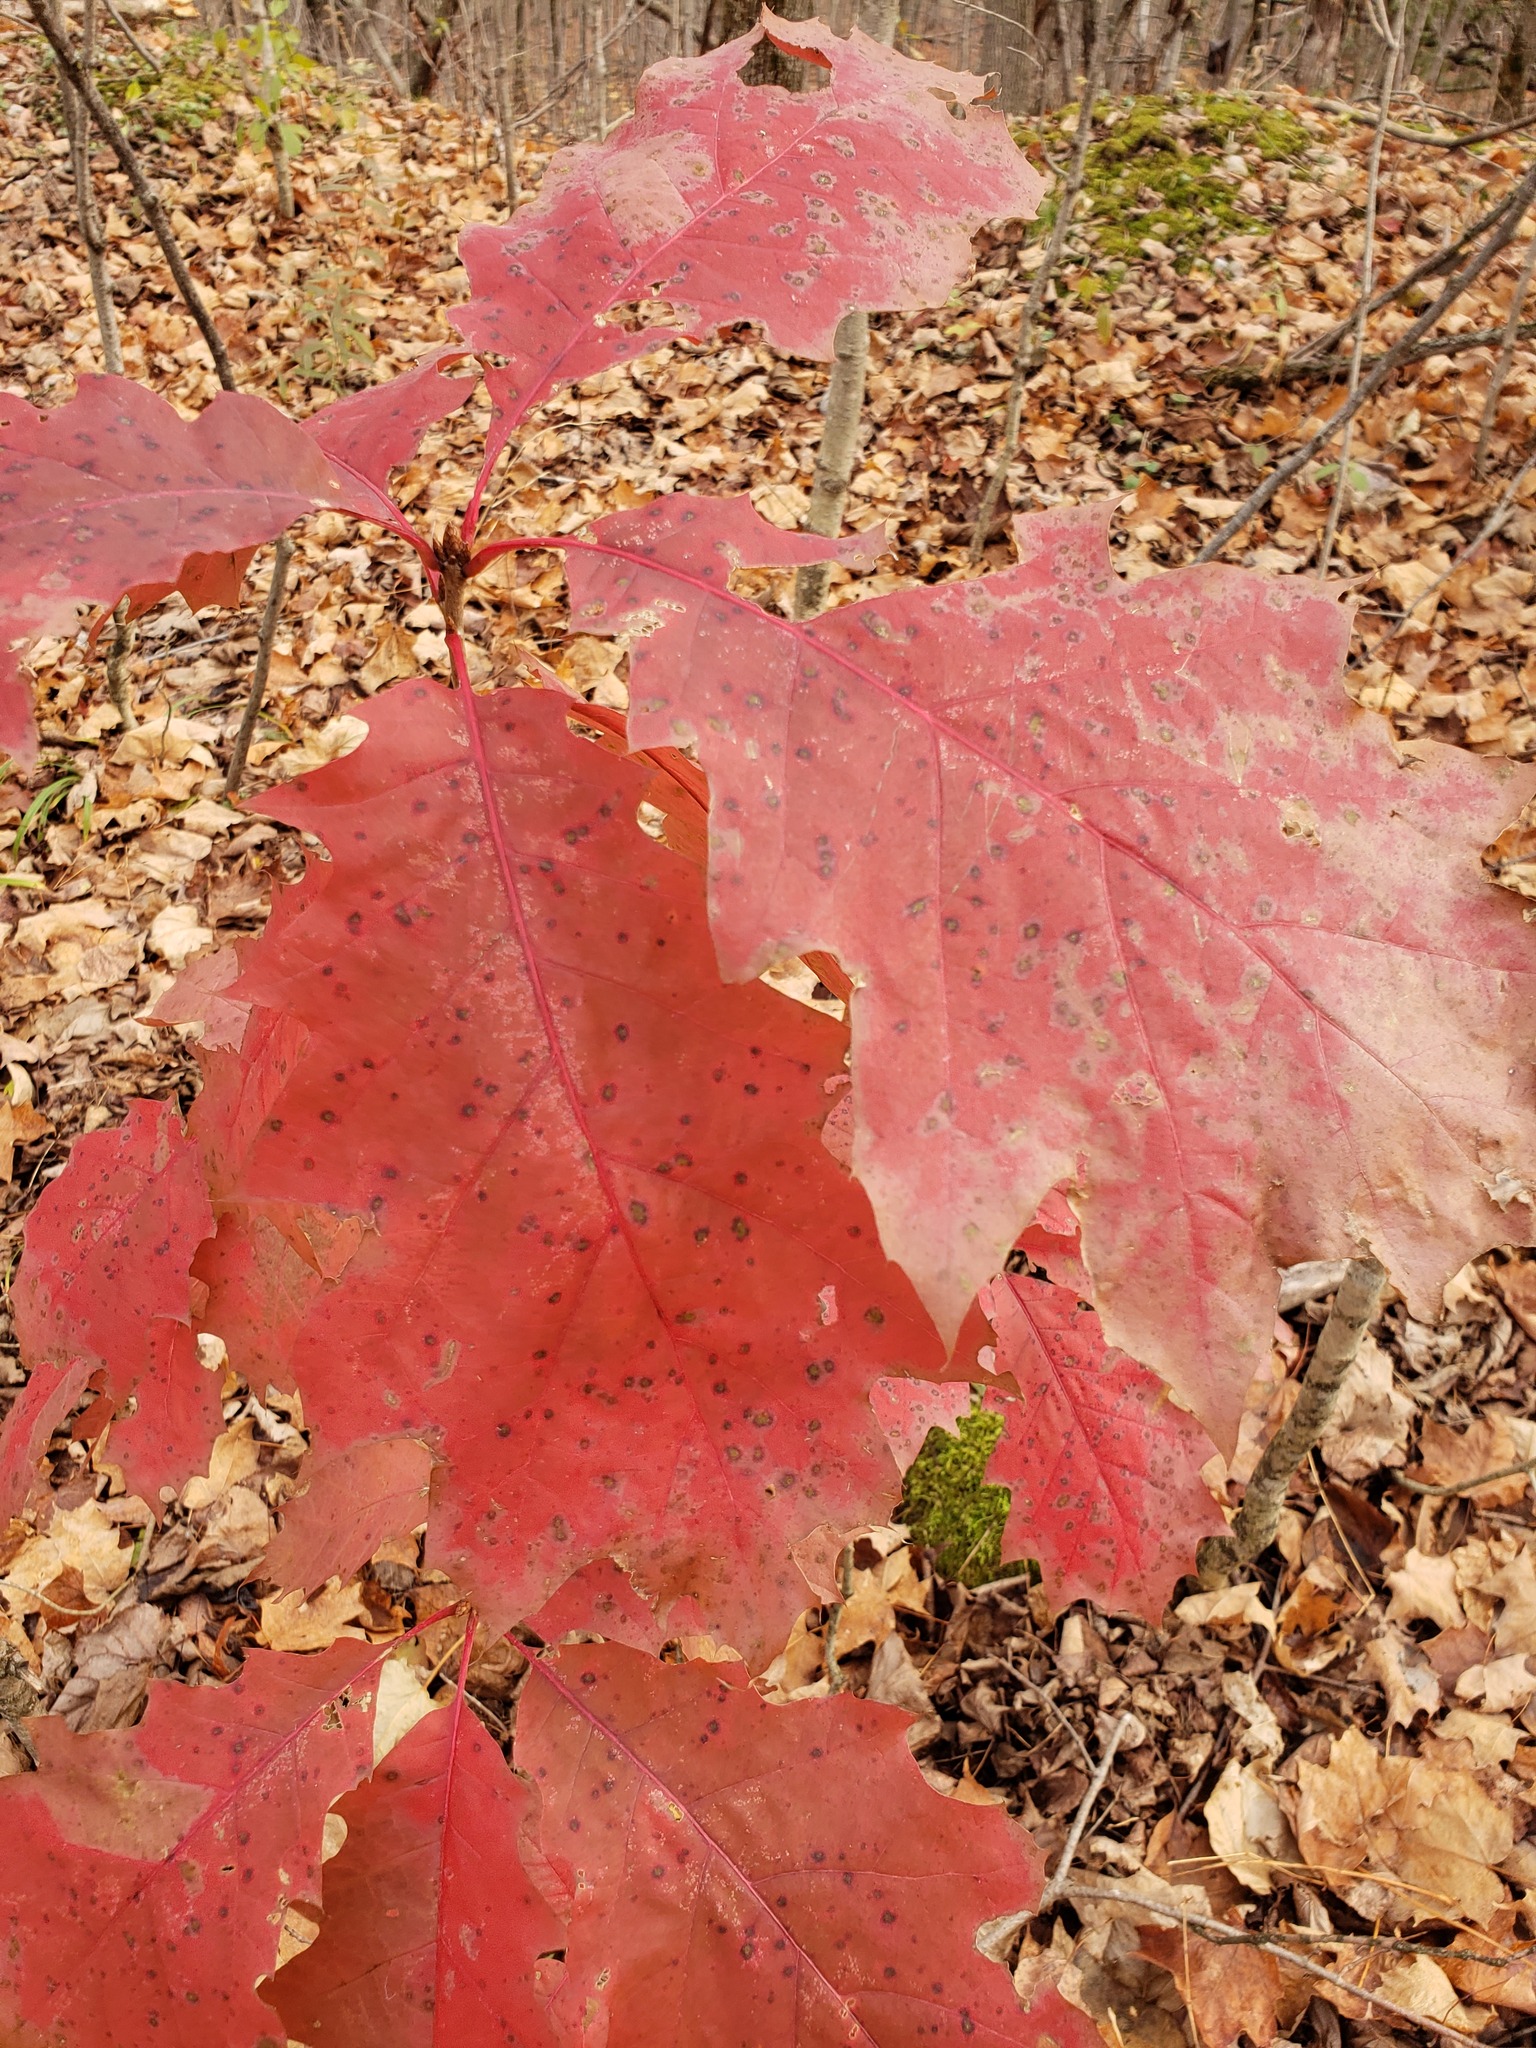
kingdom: Plantae
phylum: Tracheophyta
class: Magnoliopsida
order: Fagales
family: Fagaceae
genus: Quercus
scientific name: Quercus rubra
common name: Red oak
